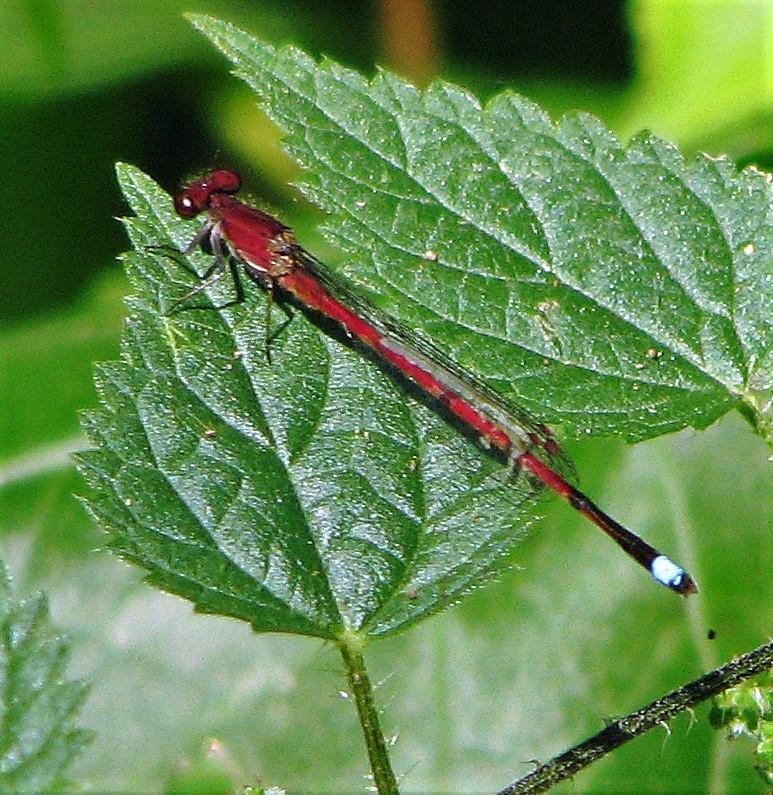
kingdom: Animalia
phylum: Arthropoda
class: Insecta
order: Odonata
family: Coenagrionidae
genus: Oxyagrion
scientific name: Oxyagrion terminale
